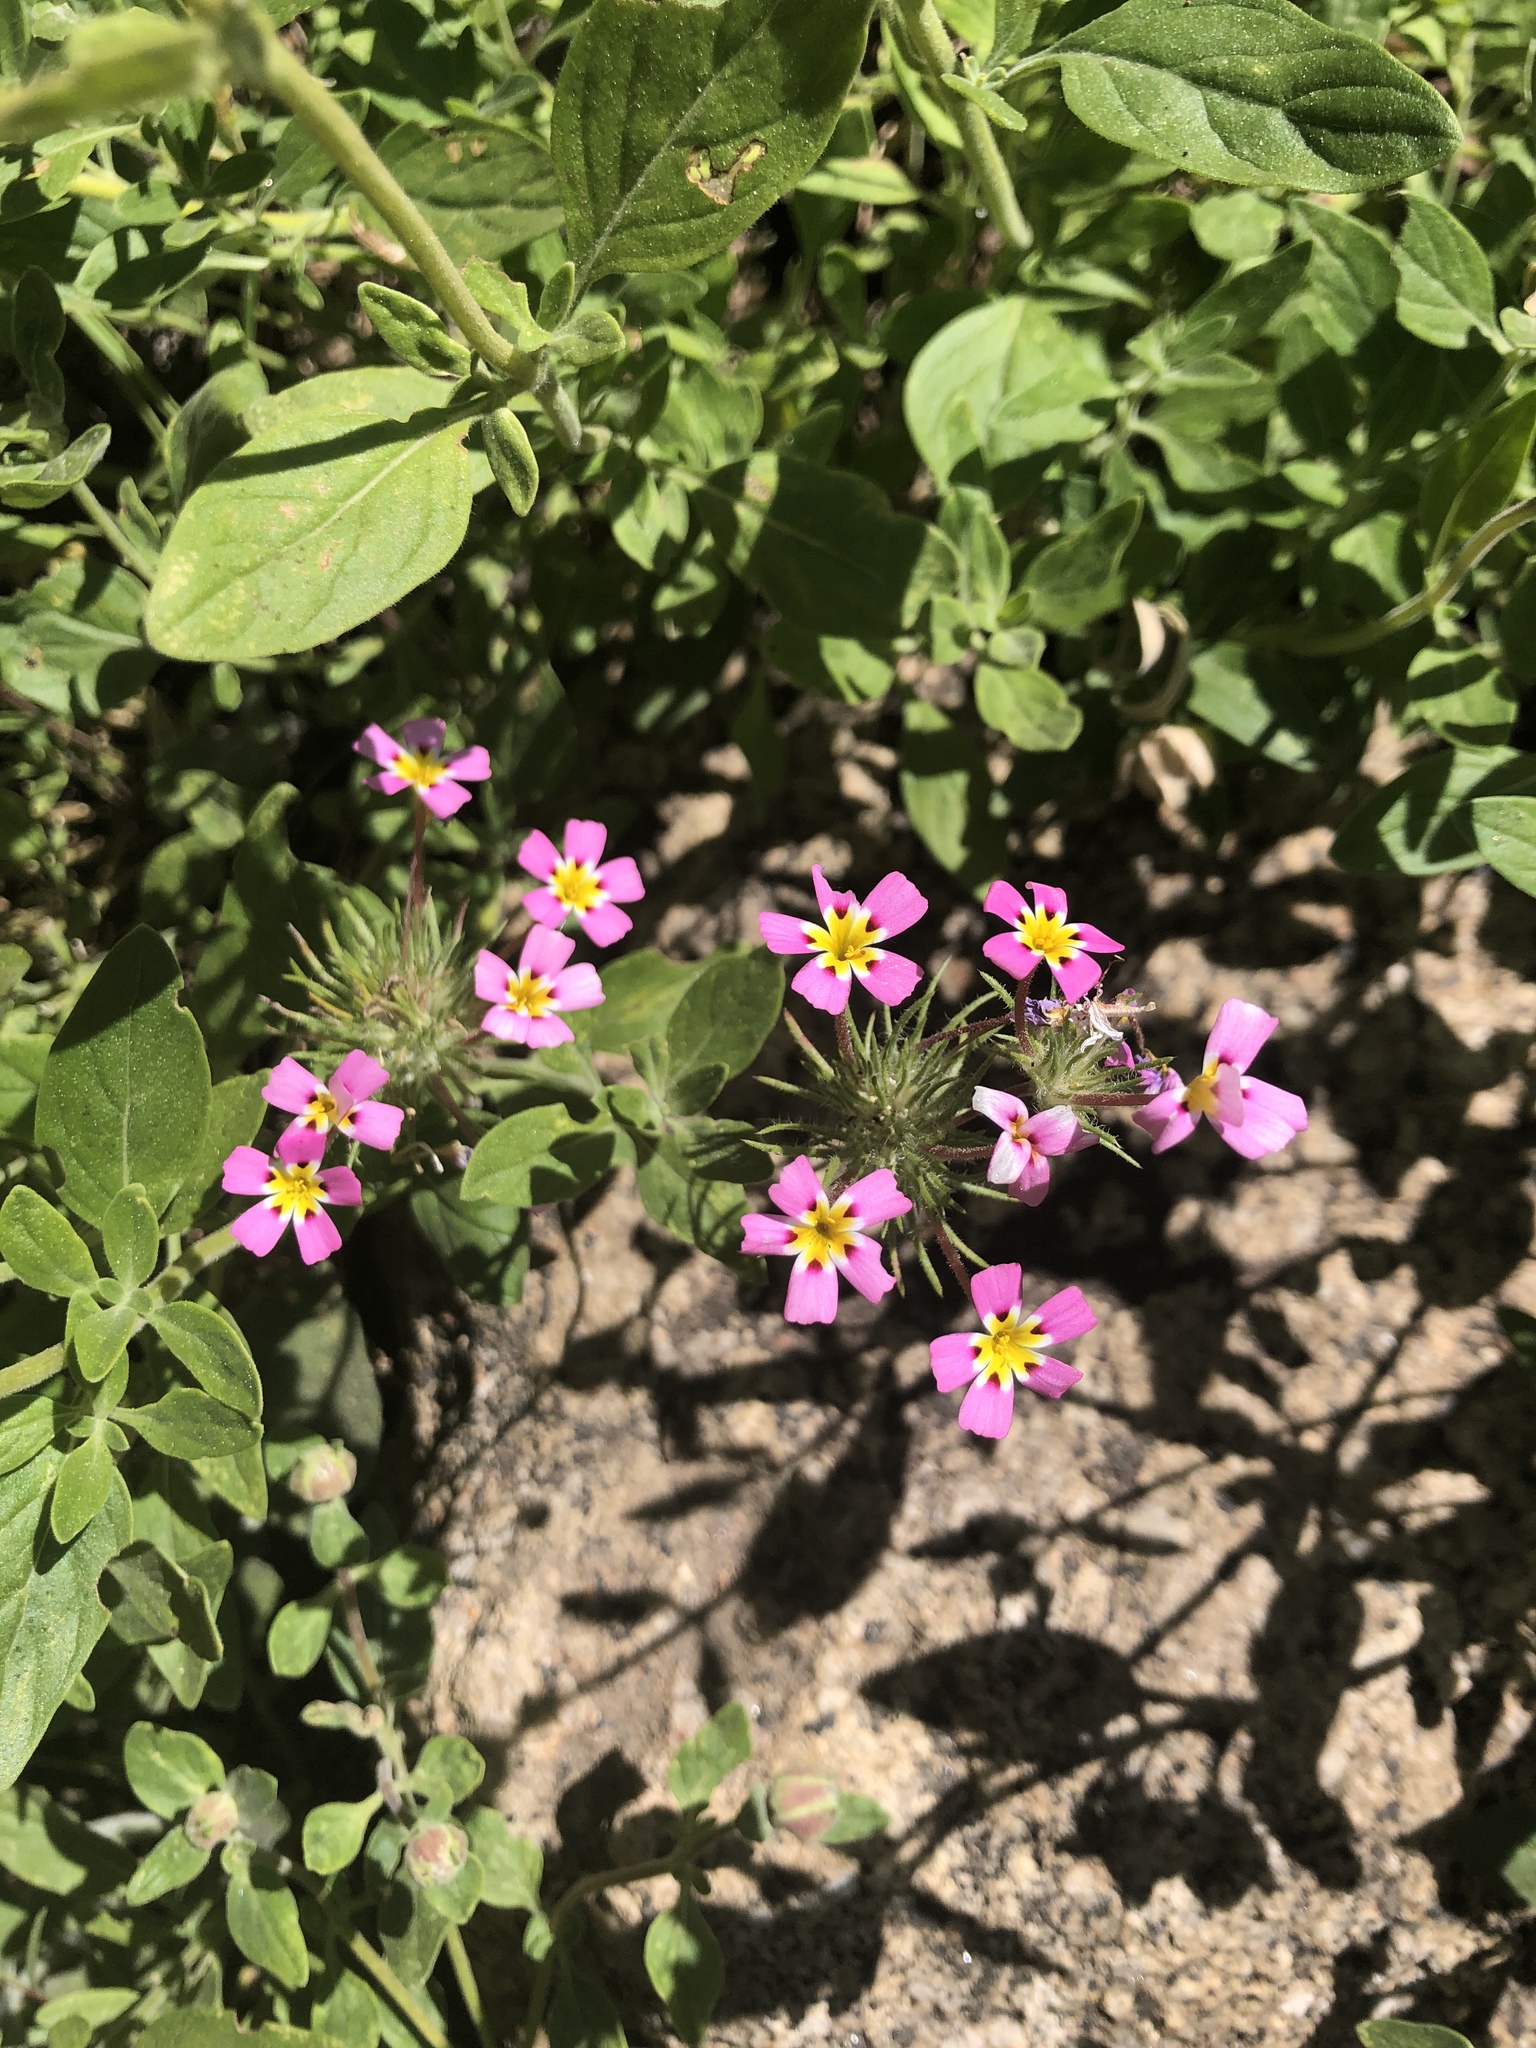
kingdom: Plantae
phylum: Tracheophyta
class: Magnoliopsida
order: Ericales
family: Polemoniaceae
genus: Leptosiphon
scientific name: Leptosiphon ciliatus
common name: Whiskerbrush
